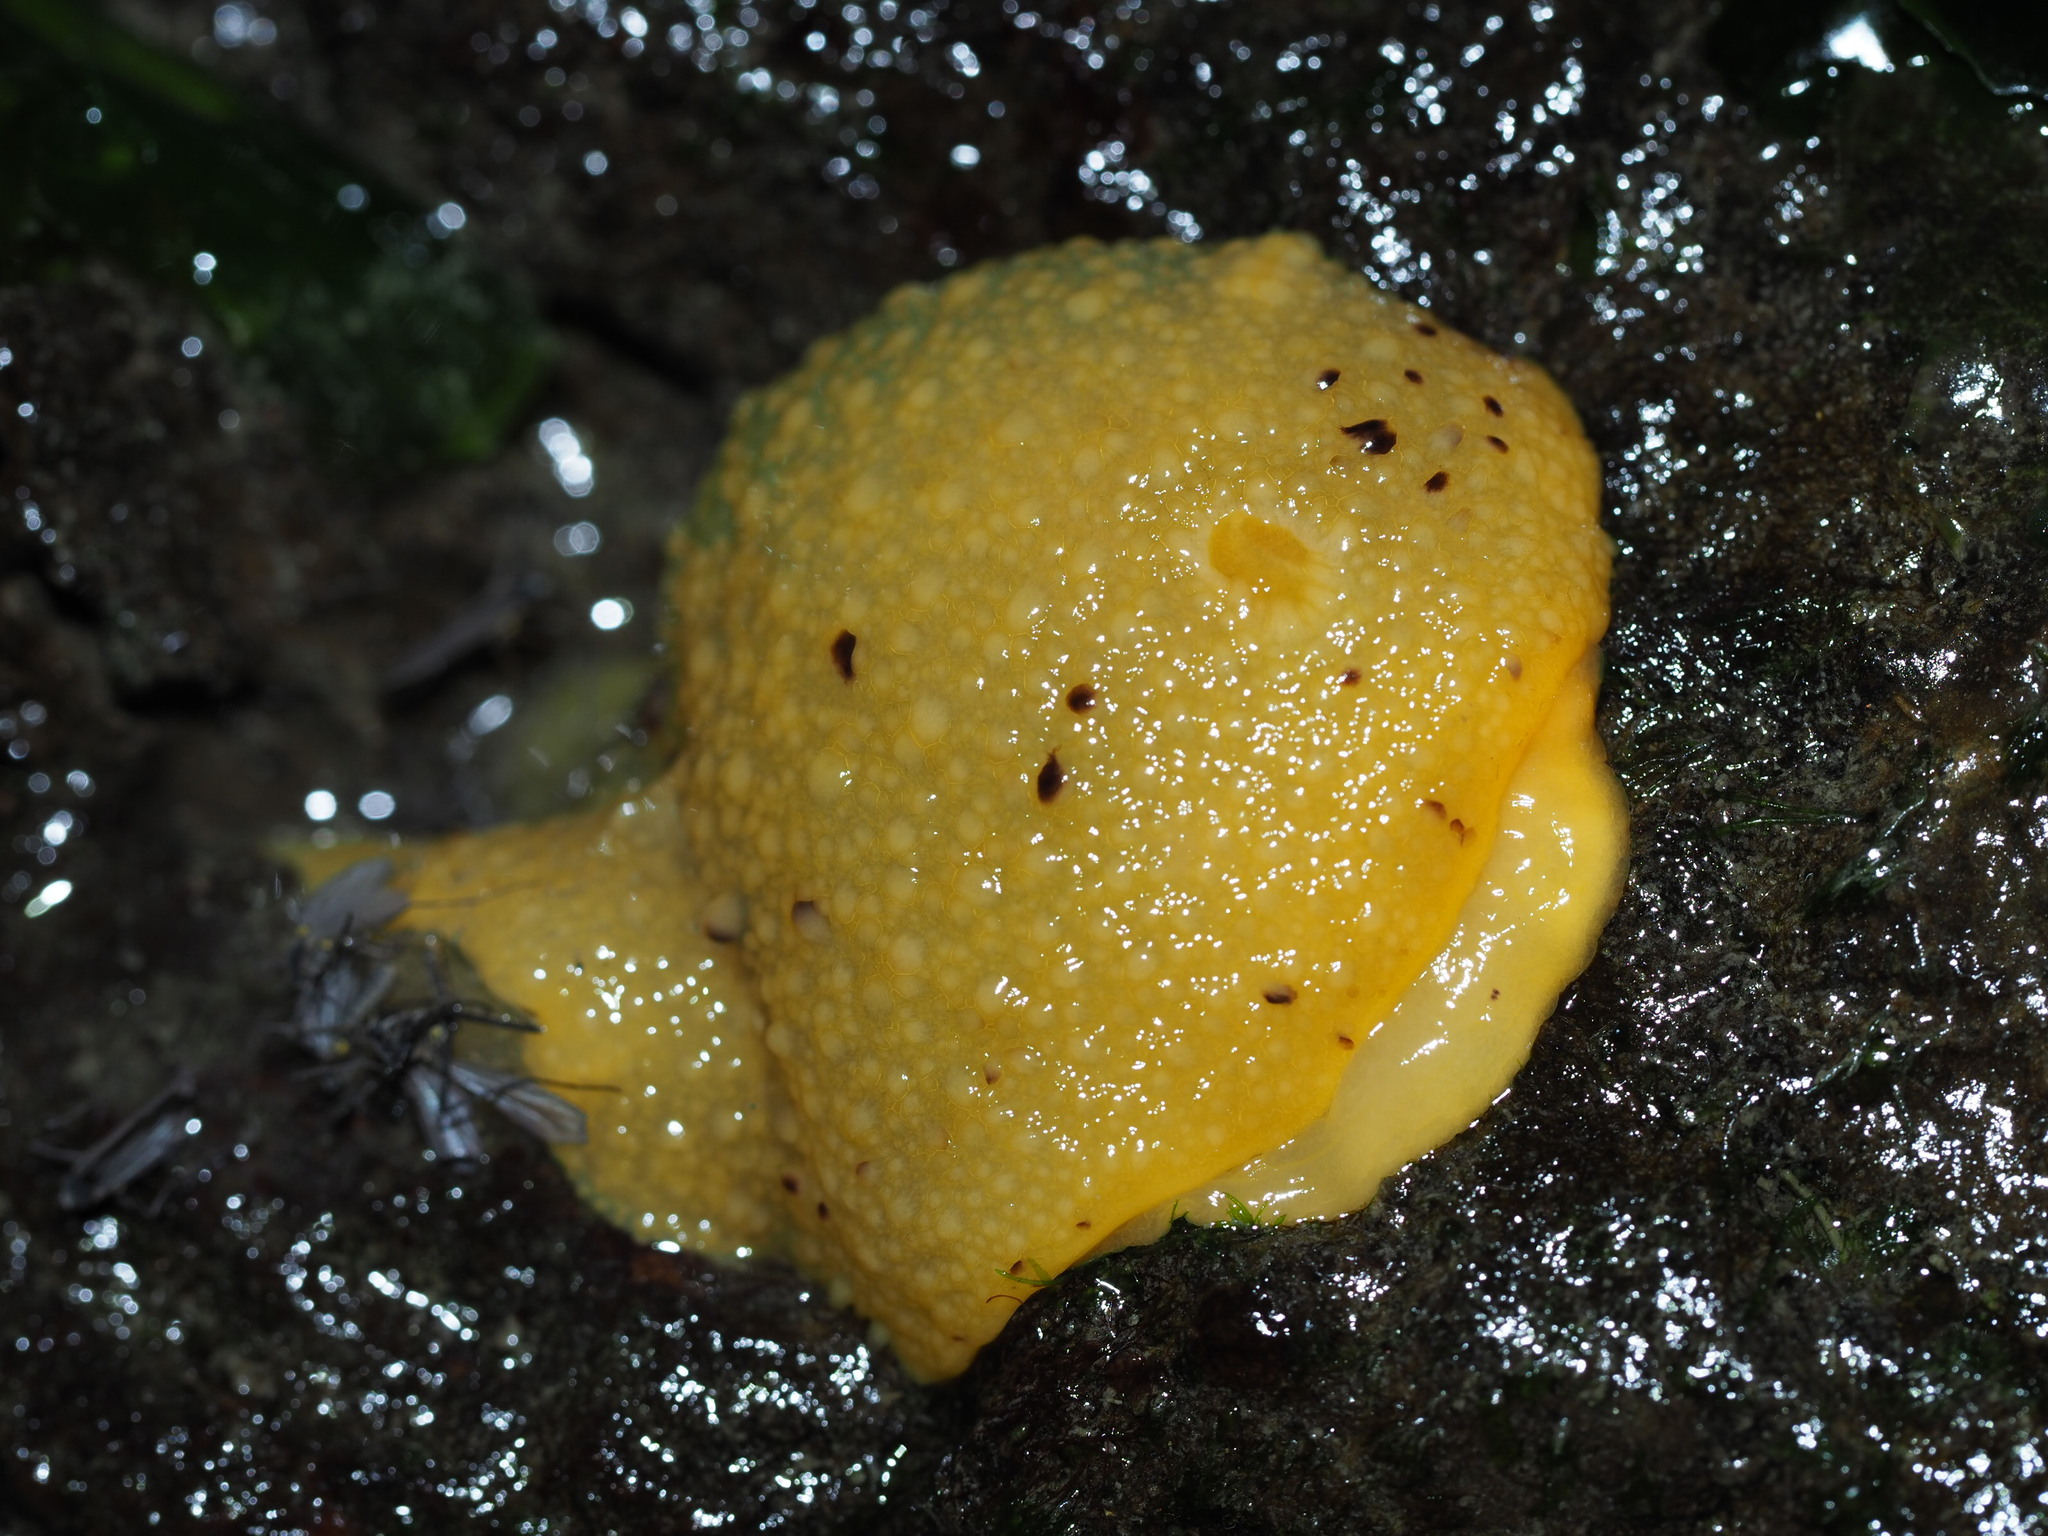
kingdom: Animalia
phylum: Mollusca
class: Gastropoda
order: Nudibranchia
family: Dorididae
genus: Doris
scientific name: Doris montereyensis
